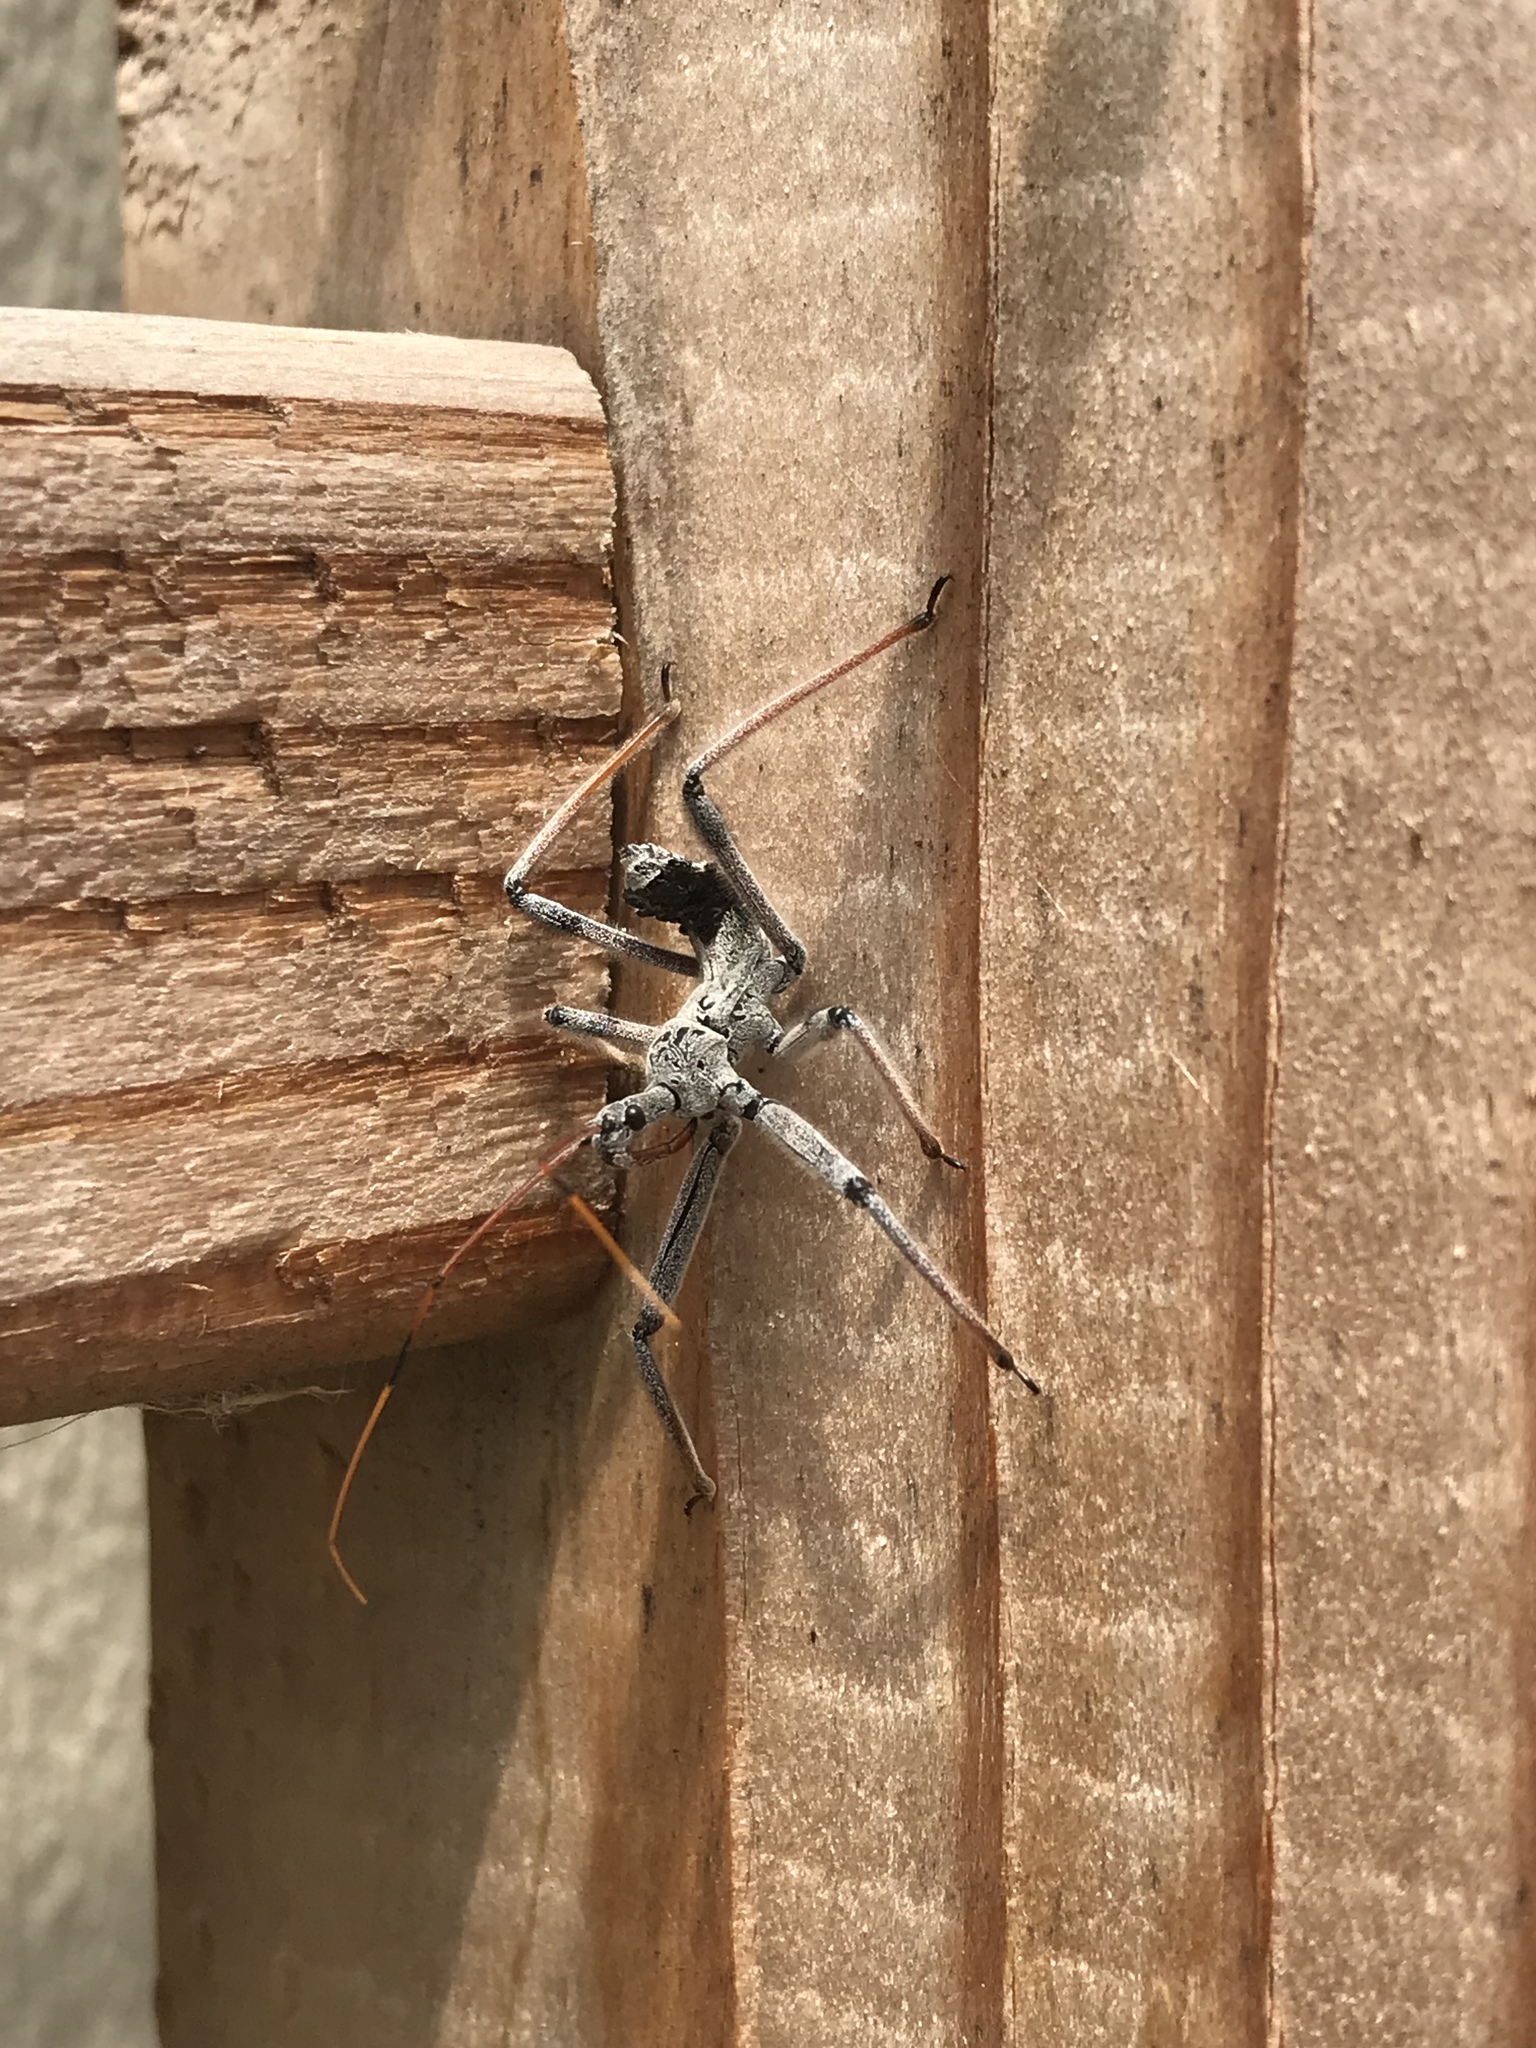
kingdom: Animalia
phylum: Arthropoda
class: Insecta
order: Hemiptera
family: Reduviidae
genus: Arilus
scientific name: Arilus cristatus
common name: North american wheel bug
